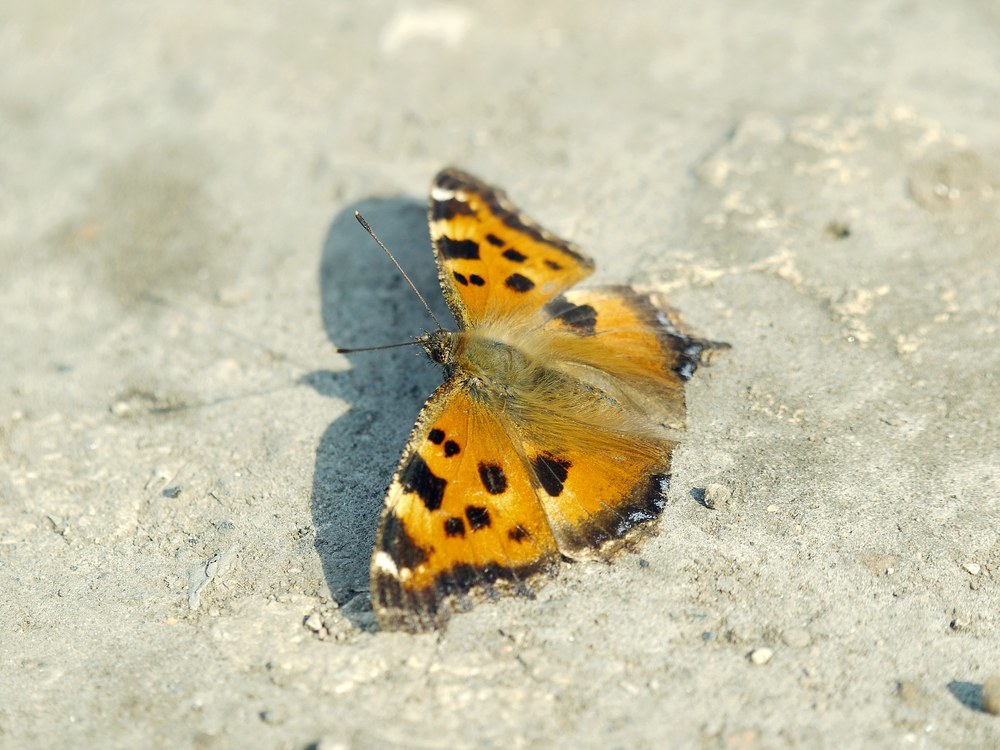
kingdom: Animalia
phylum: Arthropoda
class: Insecta
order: Lepidoptera
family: Nymphalidae
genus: Nymphalis
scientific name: Nymphalis xanthomelas
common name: Scarce tortoiseshell
